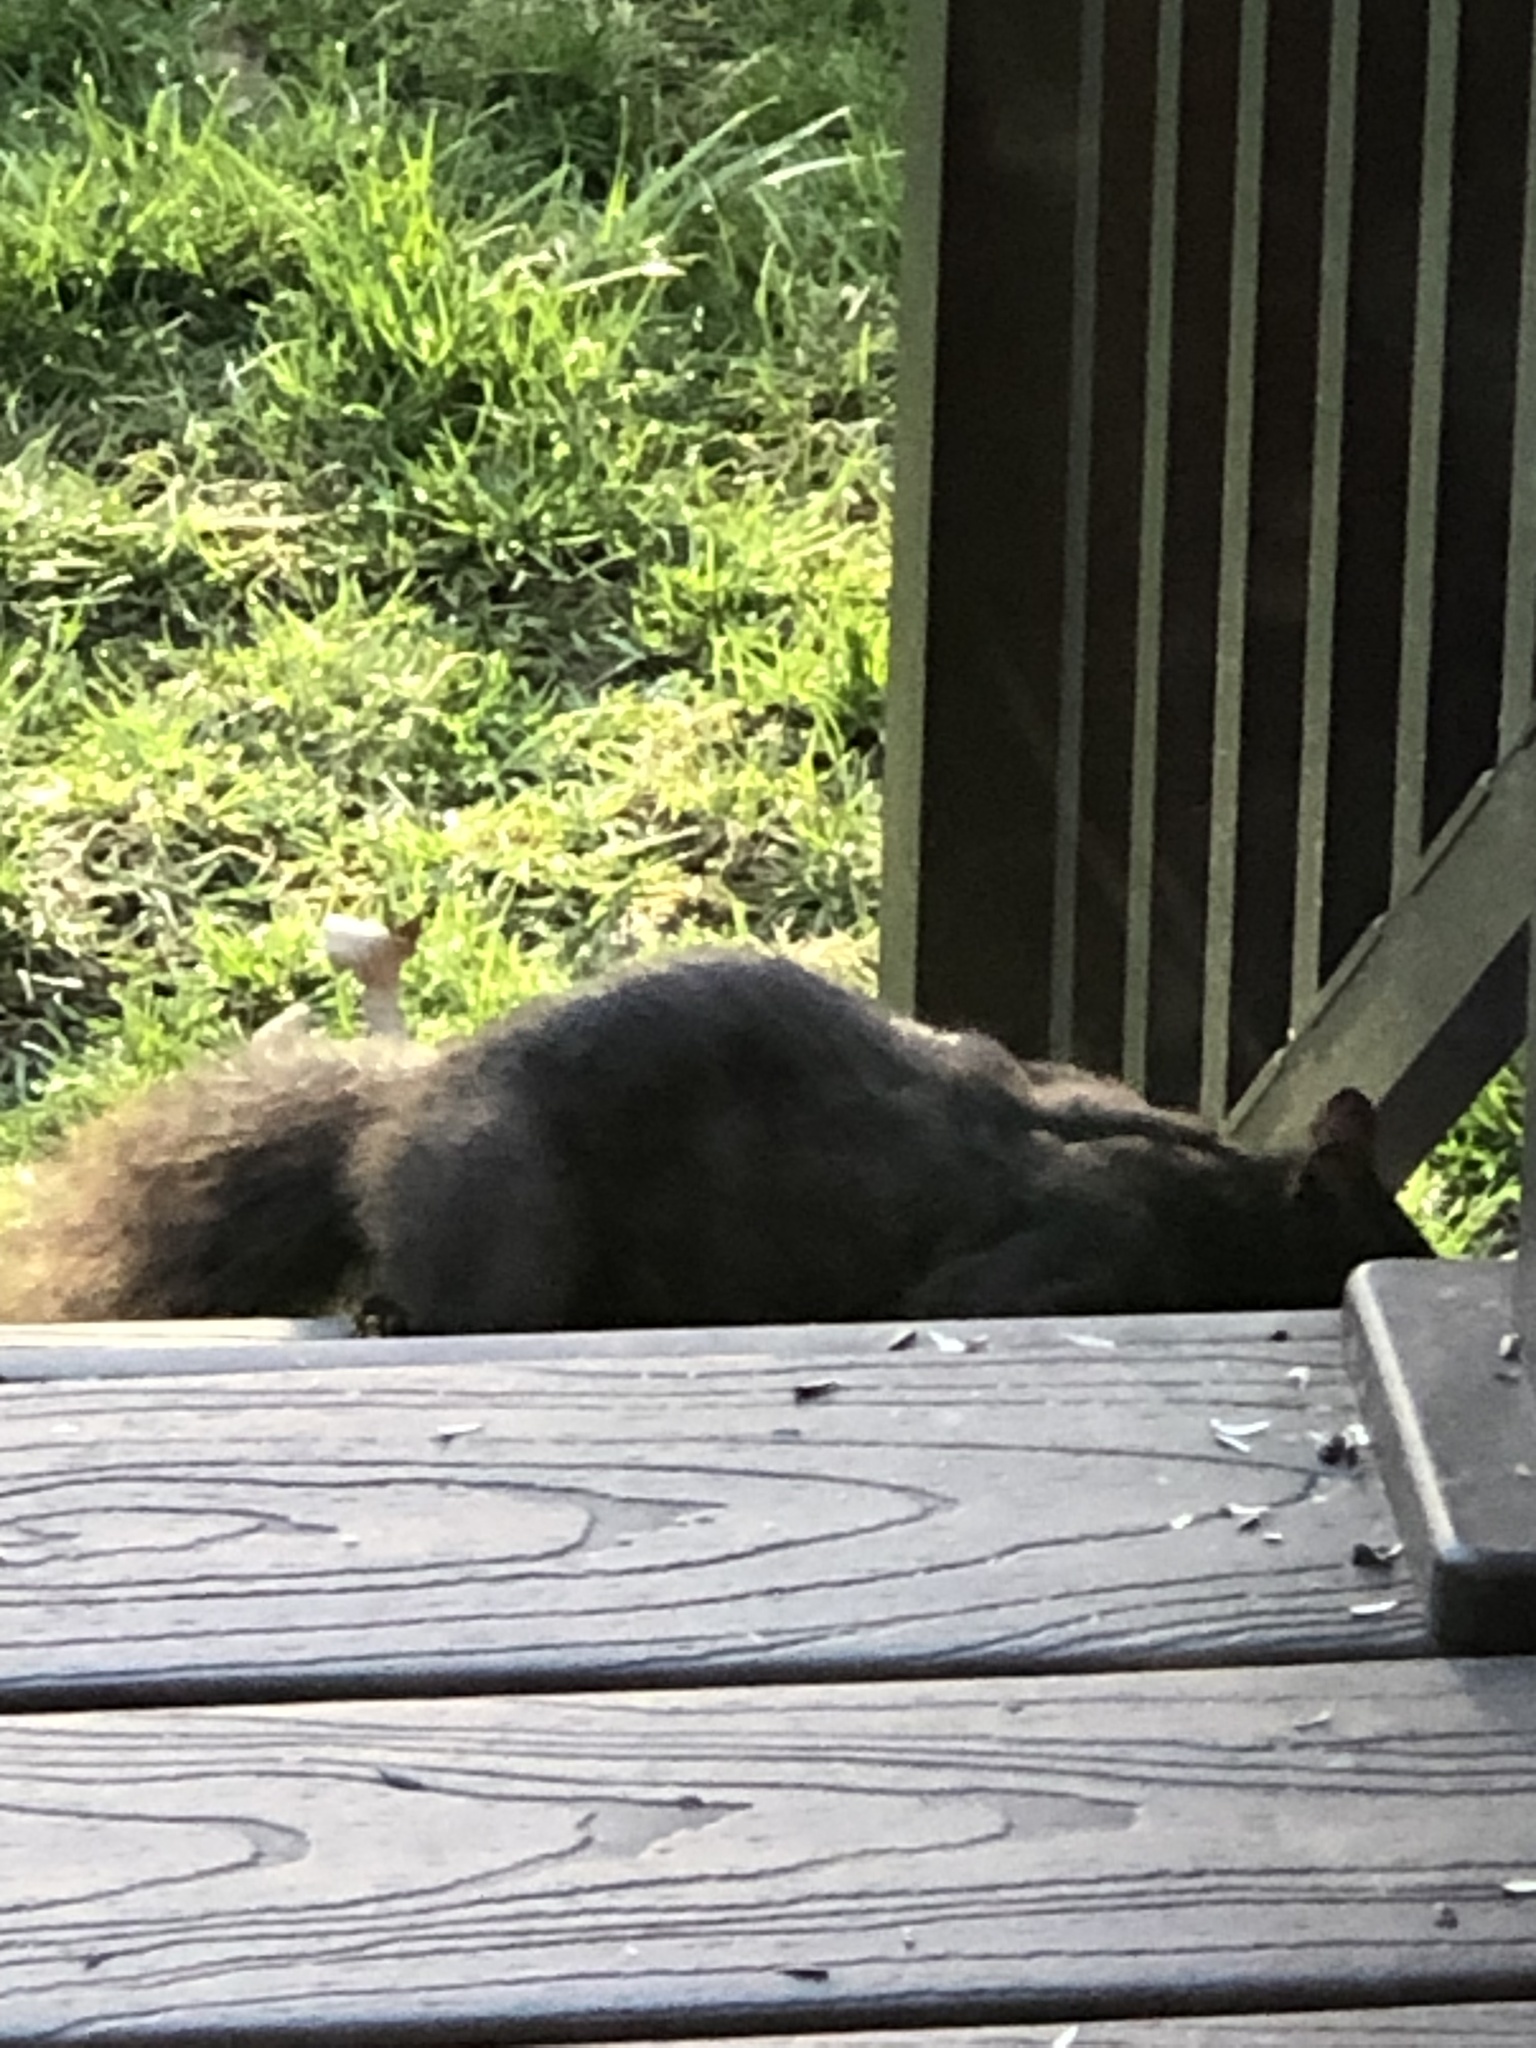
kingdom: Animalia
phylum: Chordata
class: Mammalia
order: Rodentia
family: Sciuridae
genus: Sciurus
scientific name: Sciurus carolinensis
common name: Eastern gray squirrel
